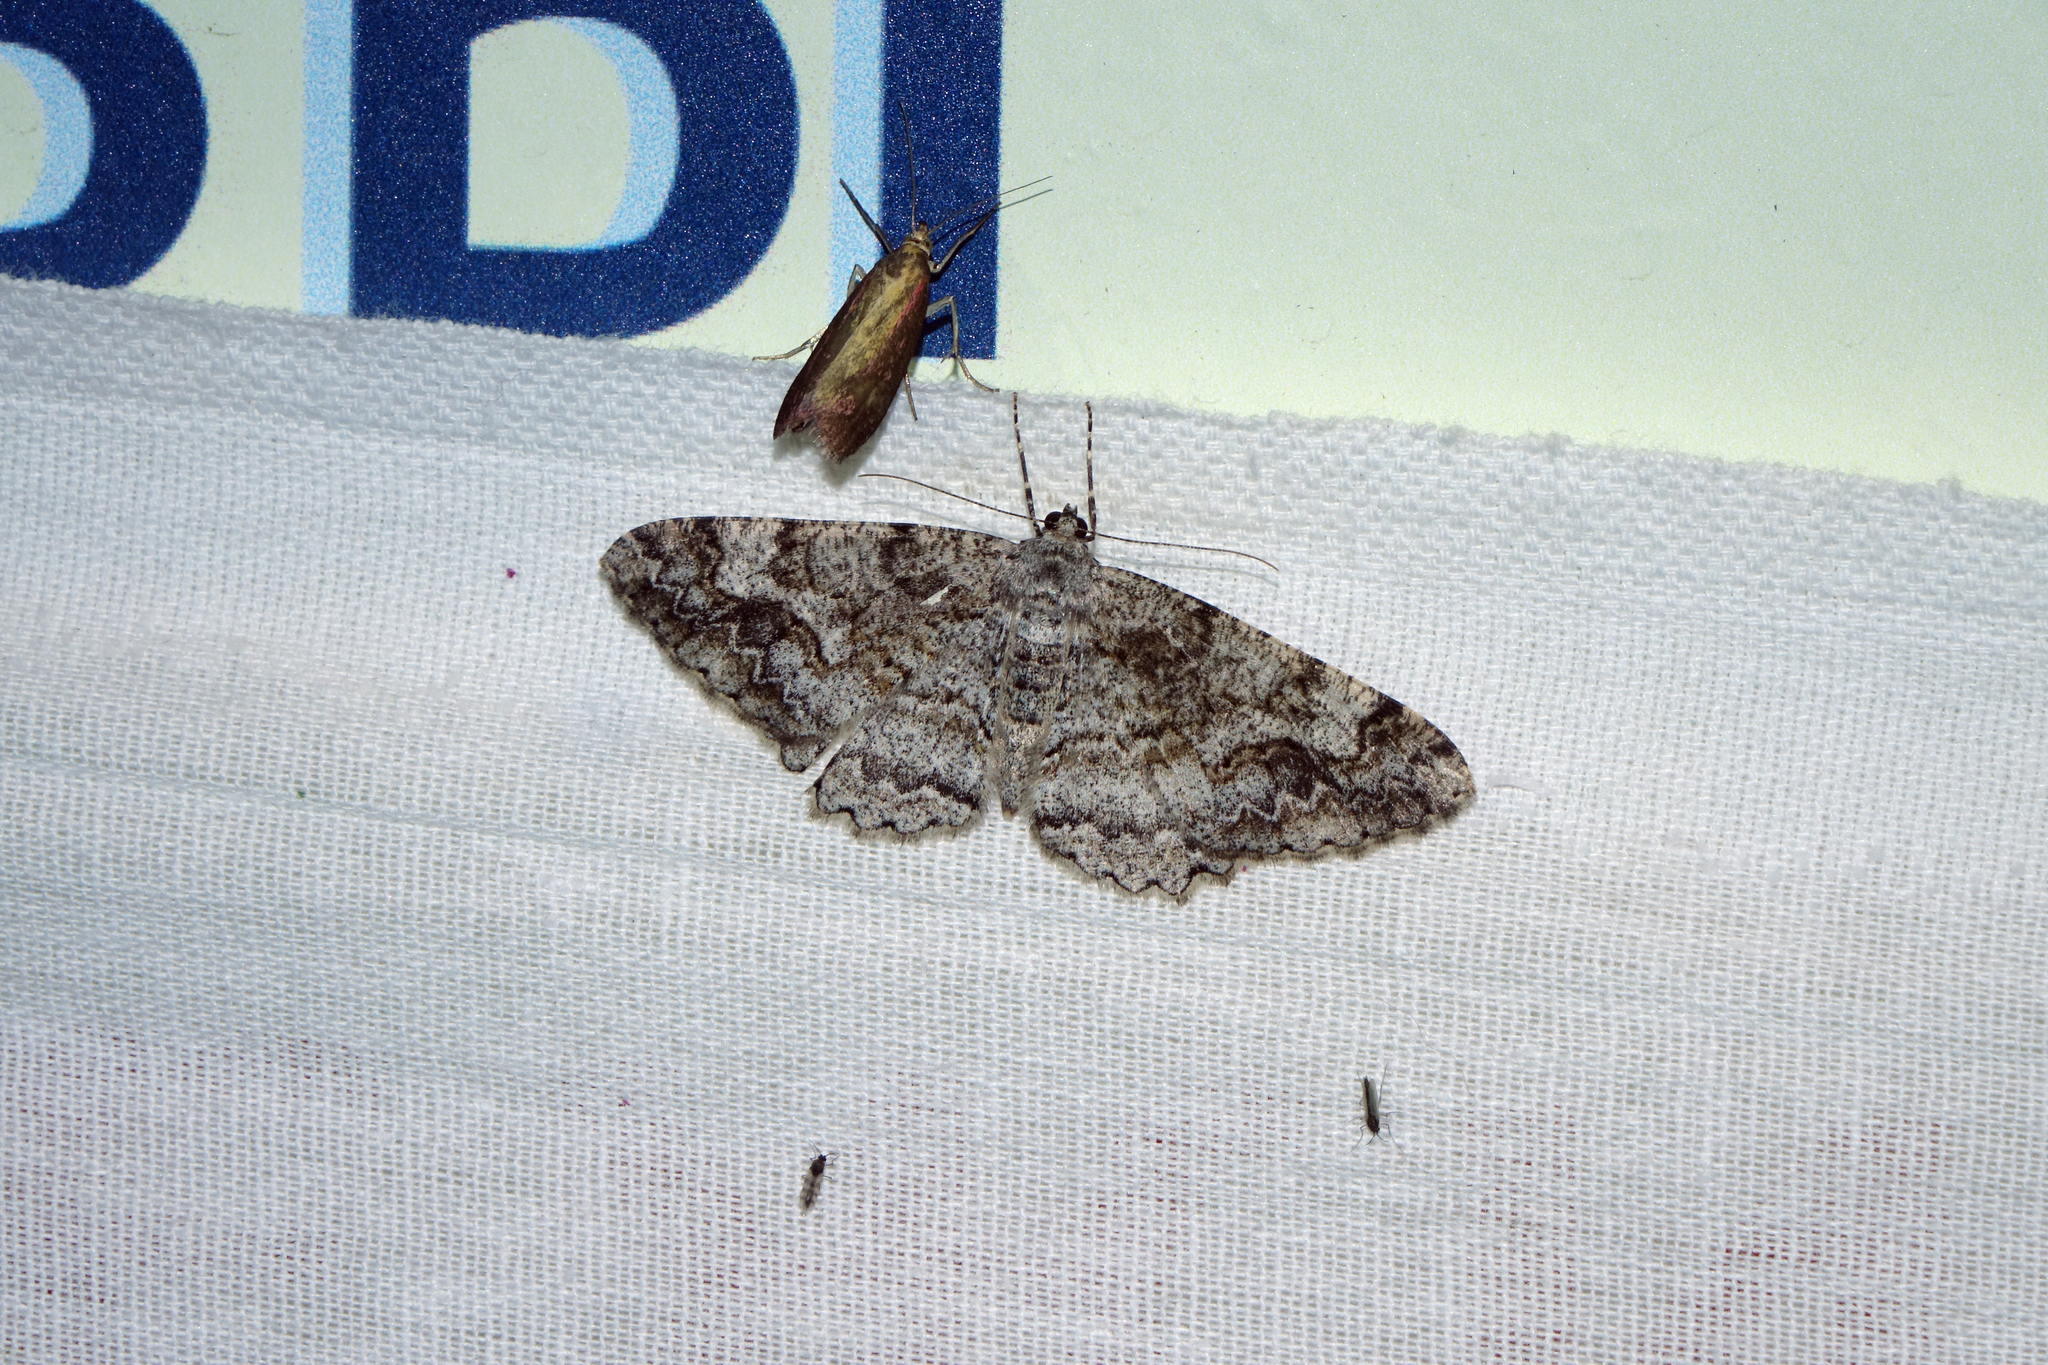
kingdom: Animalia
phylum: Arthropoda
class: Insecta
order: Lepidoptera
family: Geometridae
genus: Alcis
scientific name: Alcis repandata
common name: Mottled beauty
